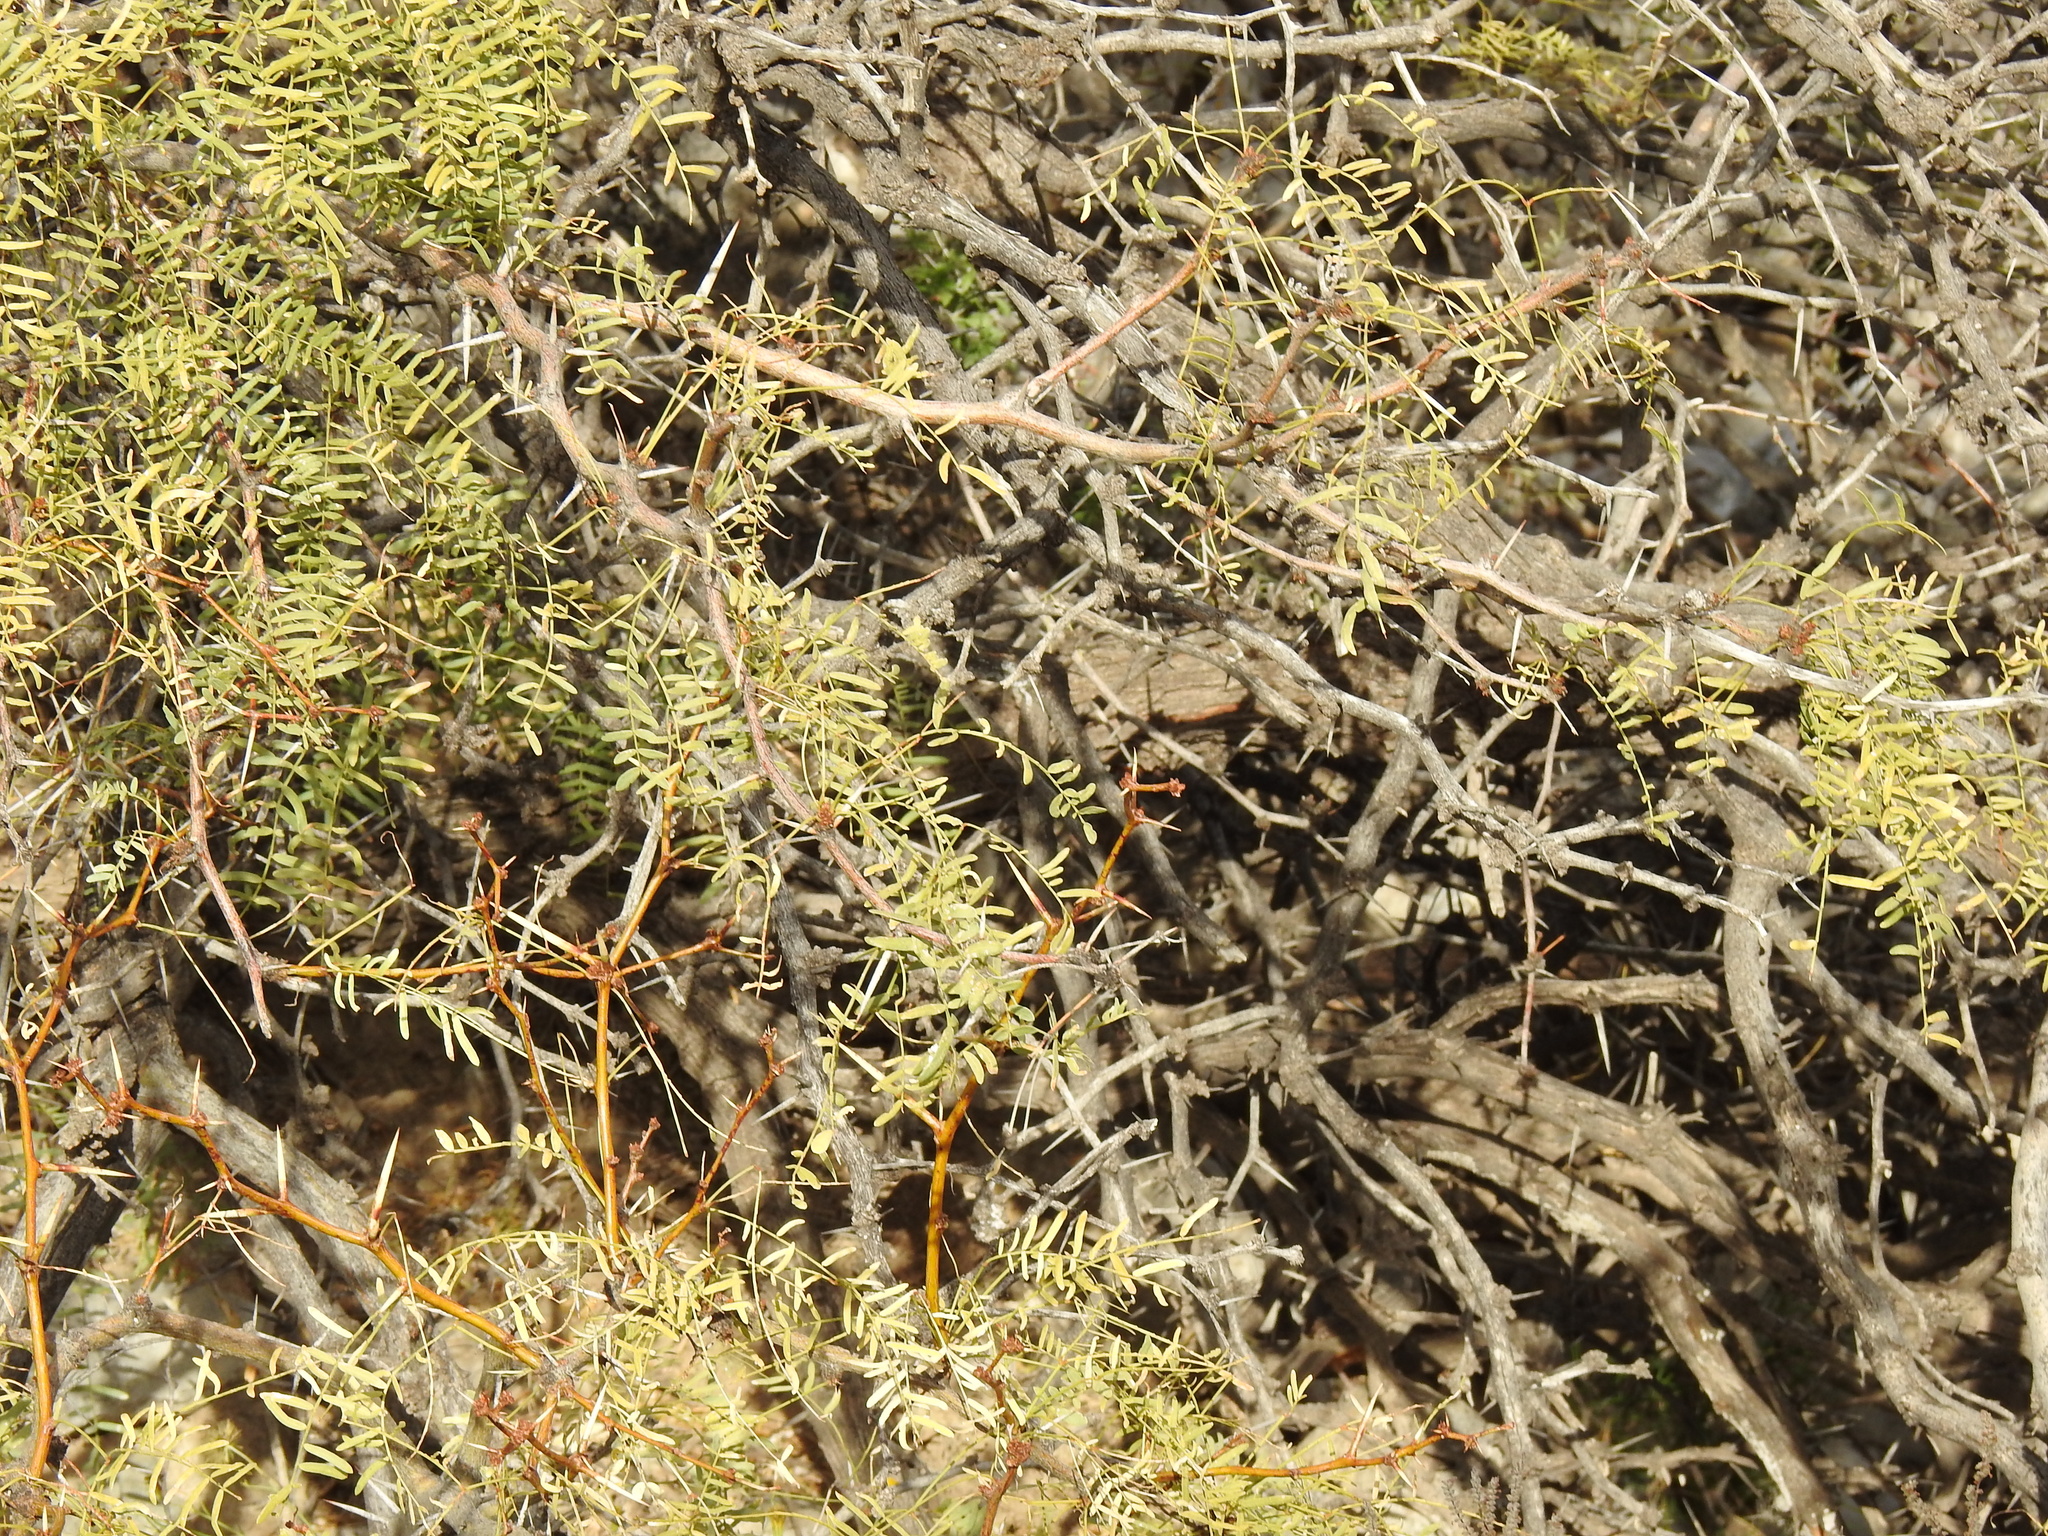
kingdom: Plantae
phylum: Tracheophyta
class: Magnoliopsida
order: Fabales
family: Fabaceae
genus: Prosopis
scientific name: Prosopis glandulosa
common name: Honey mesquite
